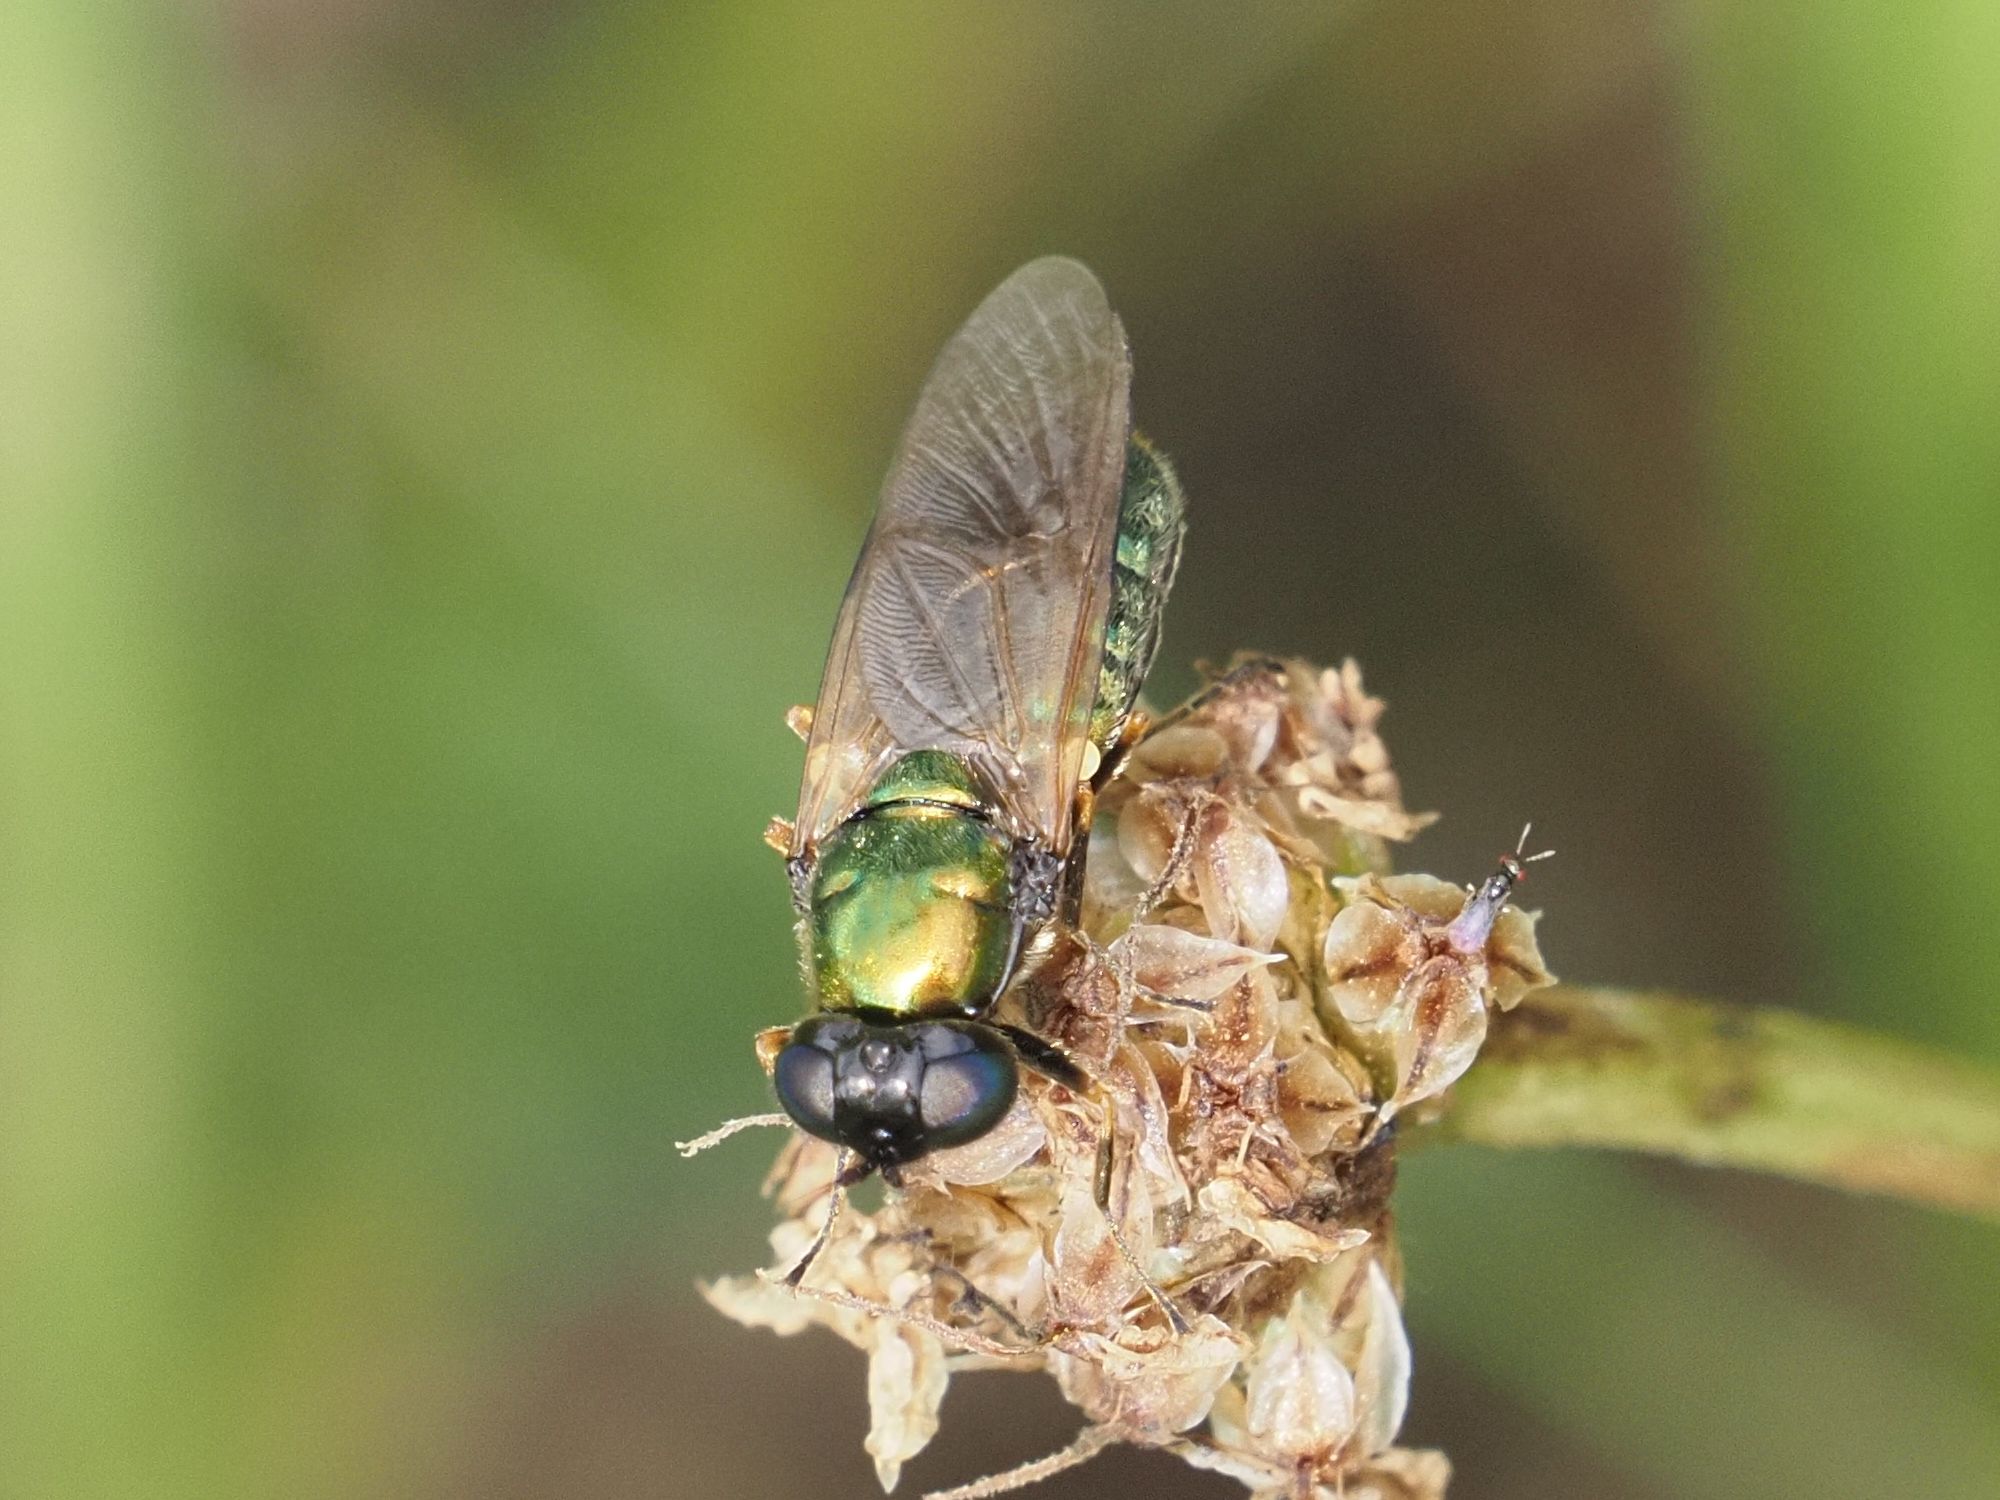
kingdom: Animalia
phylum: Arthropoda
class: Insecta
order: Diptera
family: Stratiomyidae
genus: Chloromyia
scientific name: Chloromyia formosa
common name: Soldier fly
